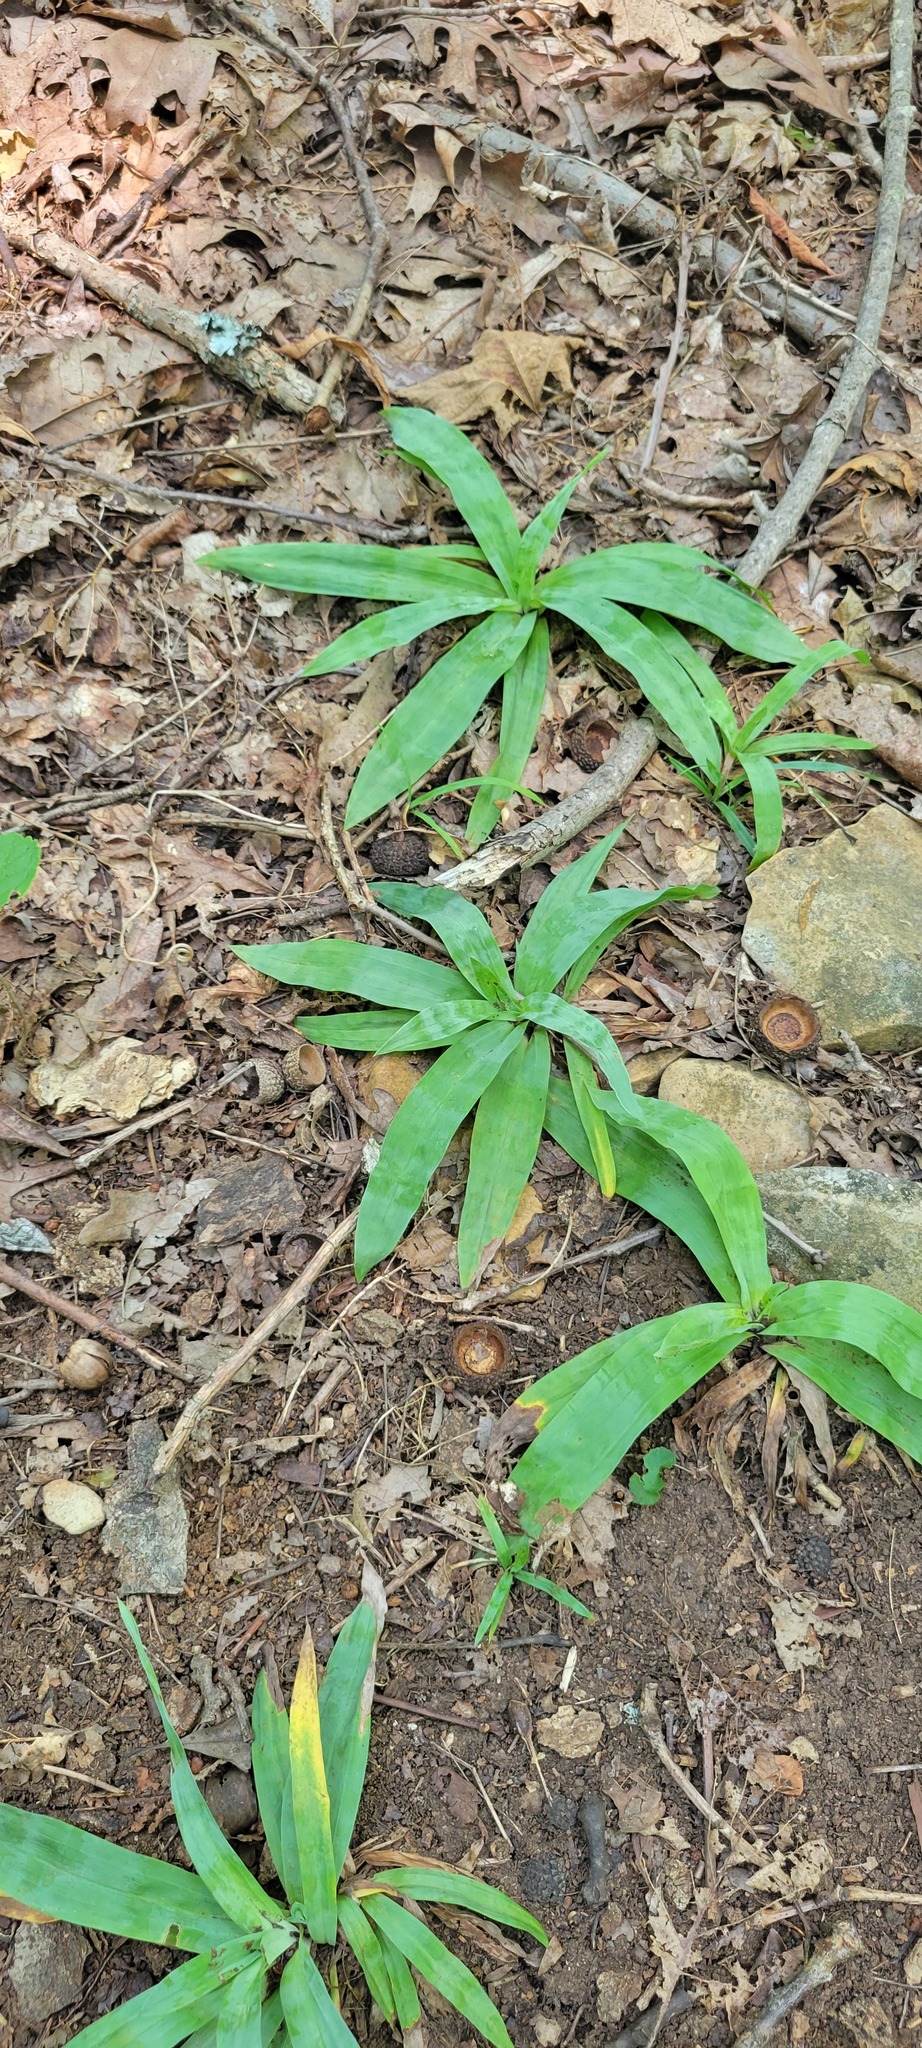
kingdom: Plantae
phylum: Tracheophyta
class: Liliopsida
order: Poales
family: Cyperaceae
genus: Carex
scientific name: Carex platyphylla
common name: Broad-leaved sedge
